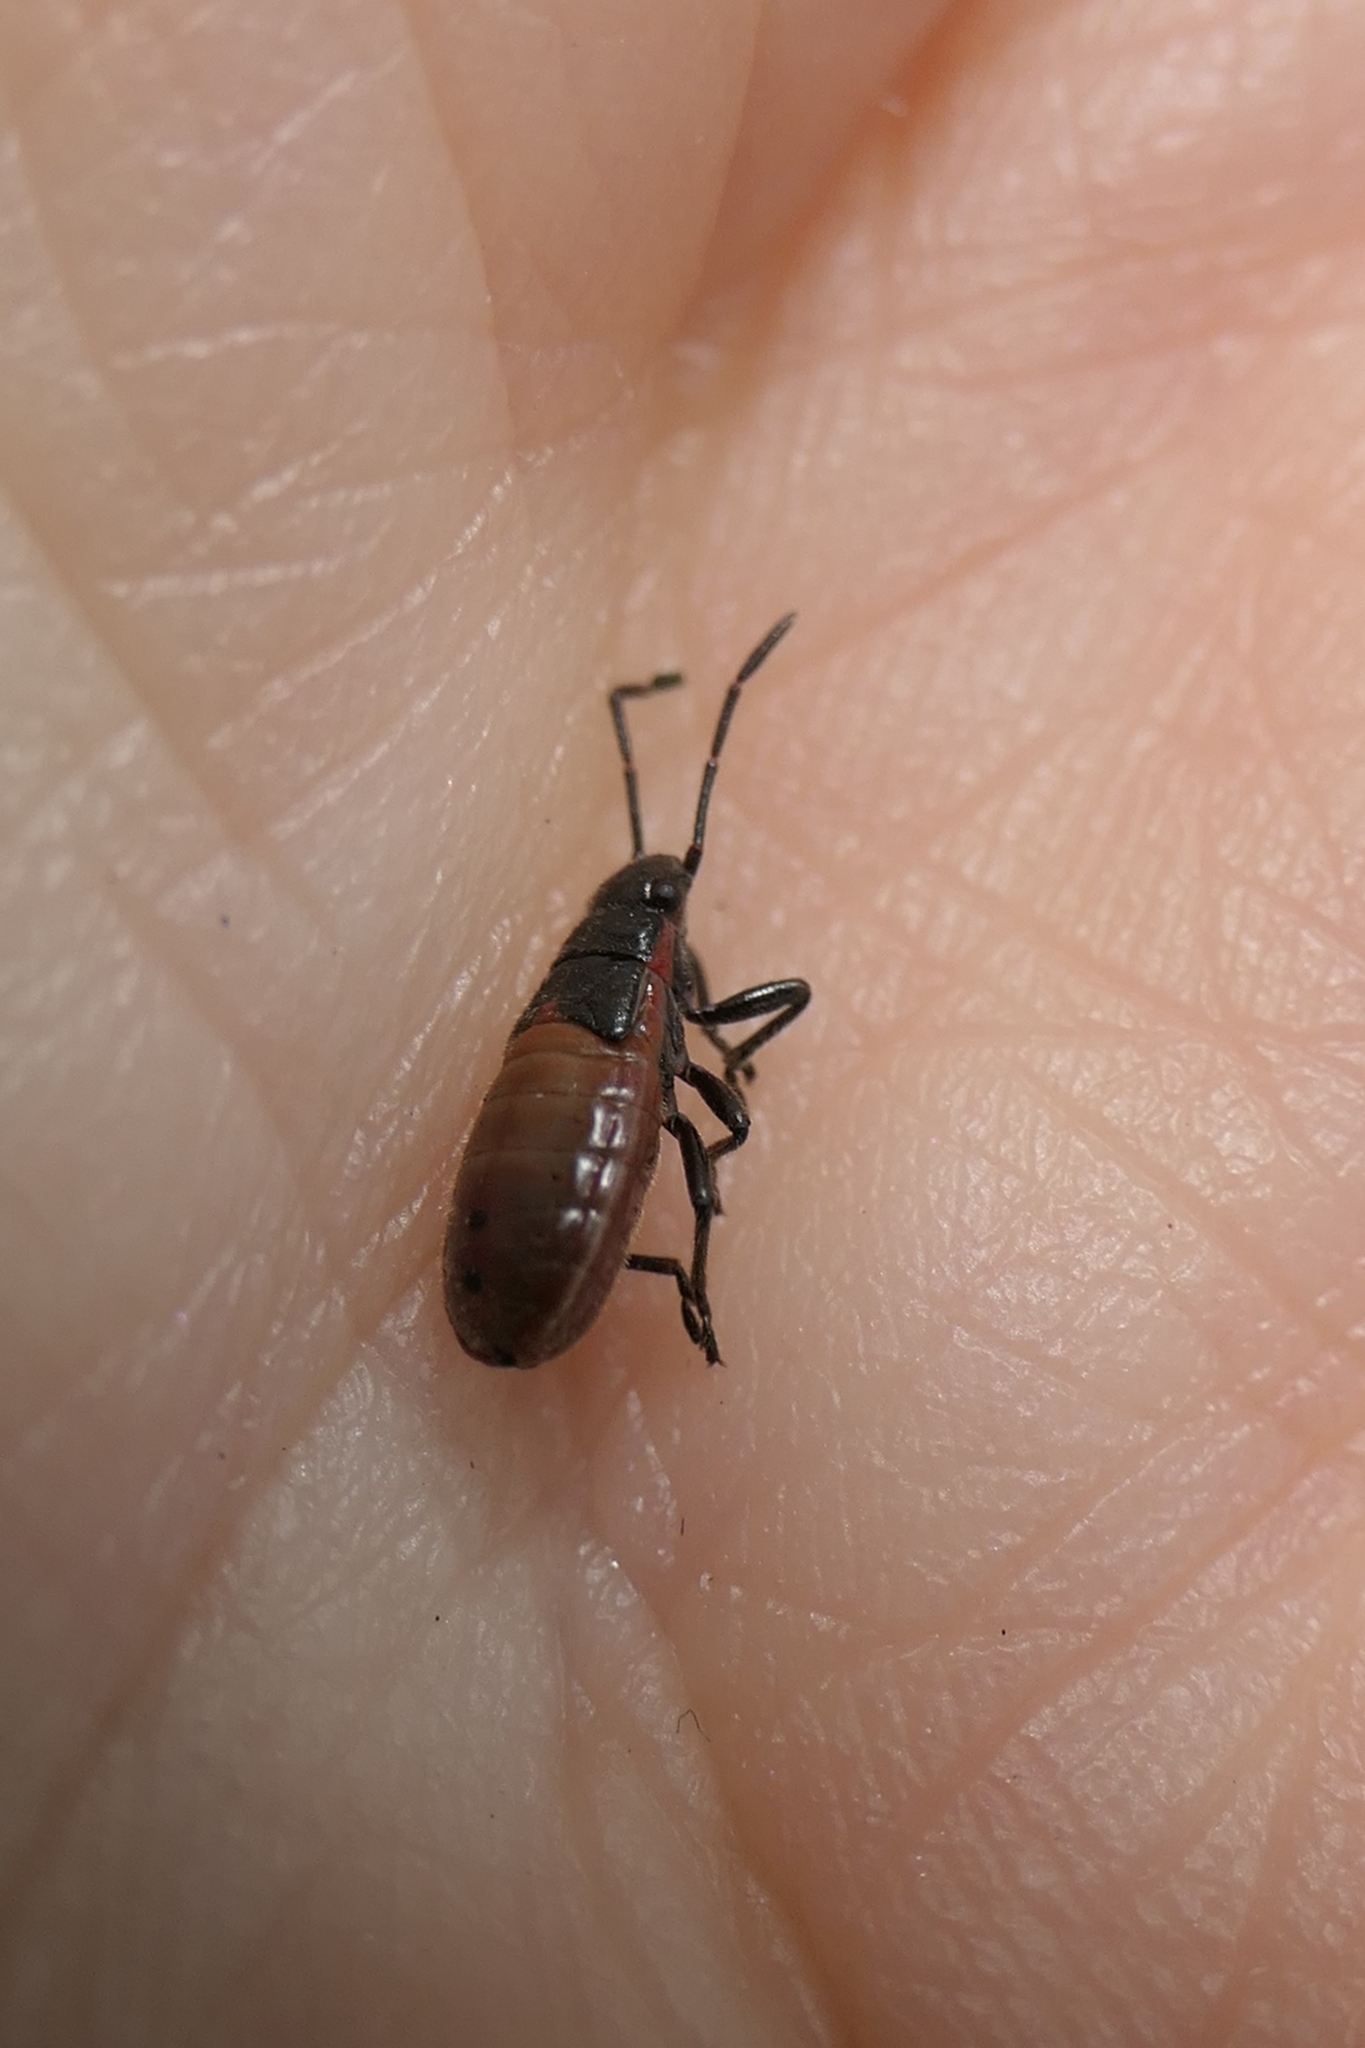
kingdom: Animalia
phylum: Arthropoda
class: Insecta
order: Hemiptera
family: Lygaeidae
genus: Arocatus
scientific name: Arocatus rusticus
